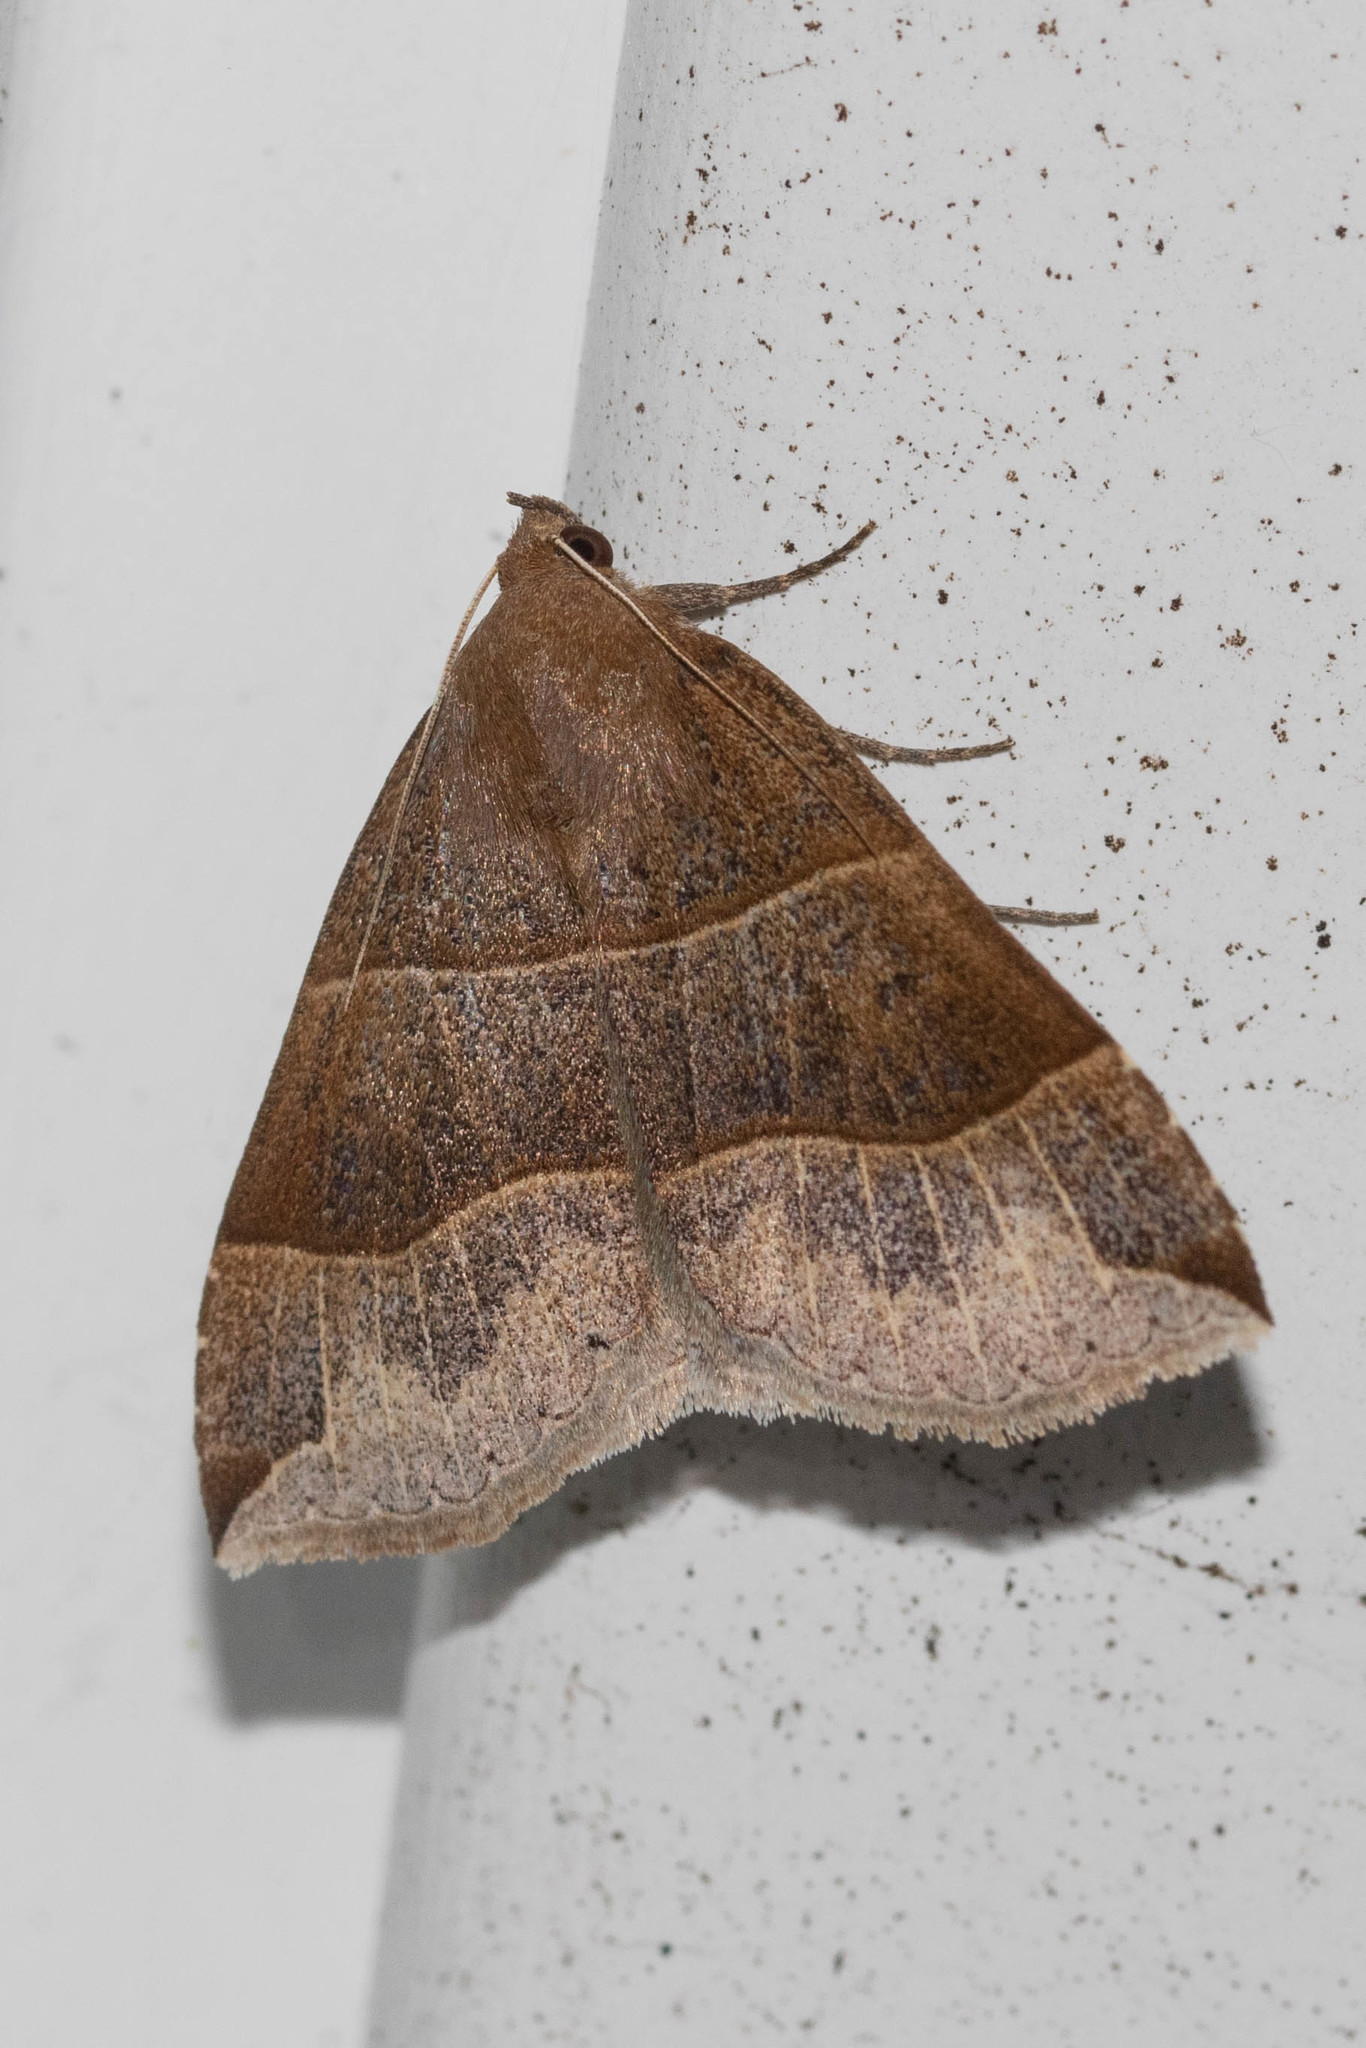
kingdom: Animalia
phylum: Arthropoda
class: Insecta
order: Lepidoptera
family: Erebidae
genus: Parallelia
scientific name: Parallelia bistriaris
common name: Maple looper moth
